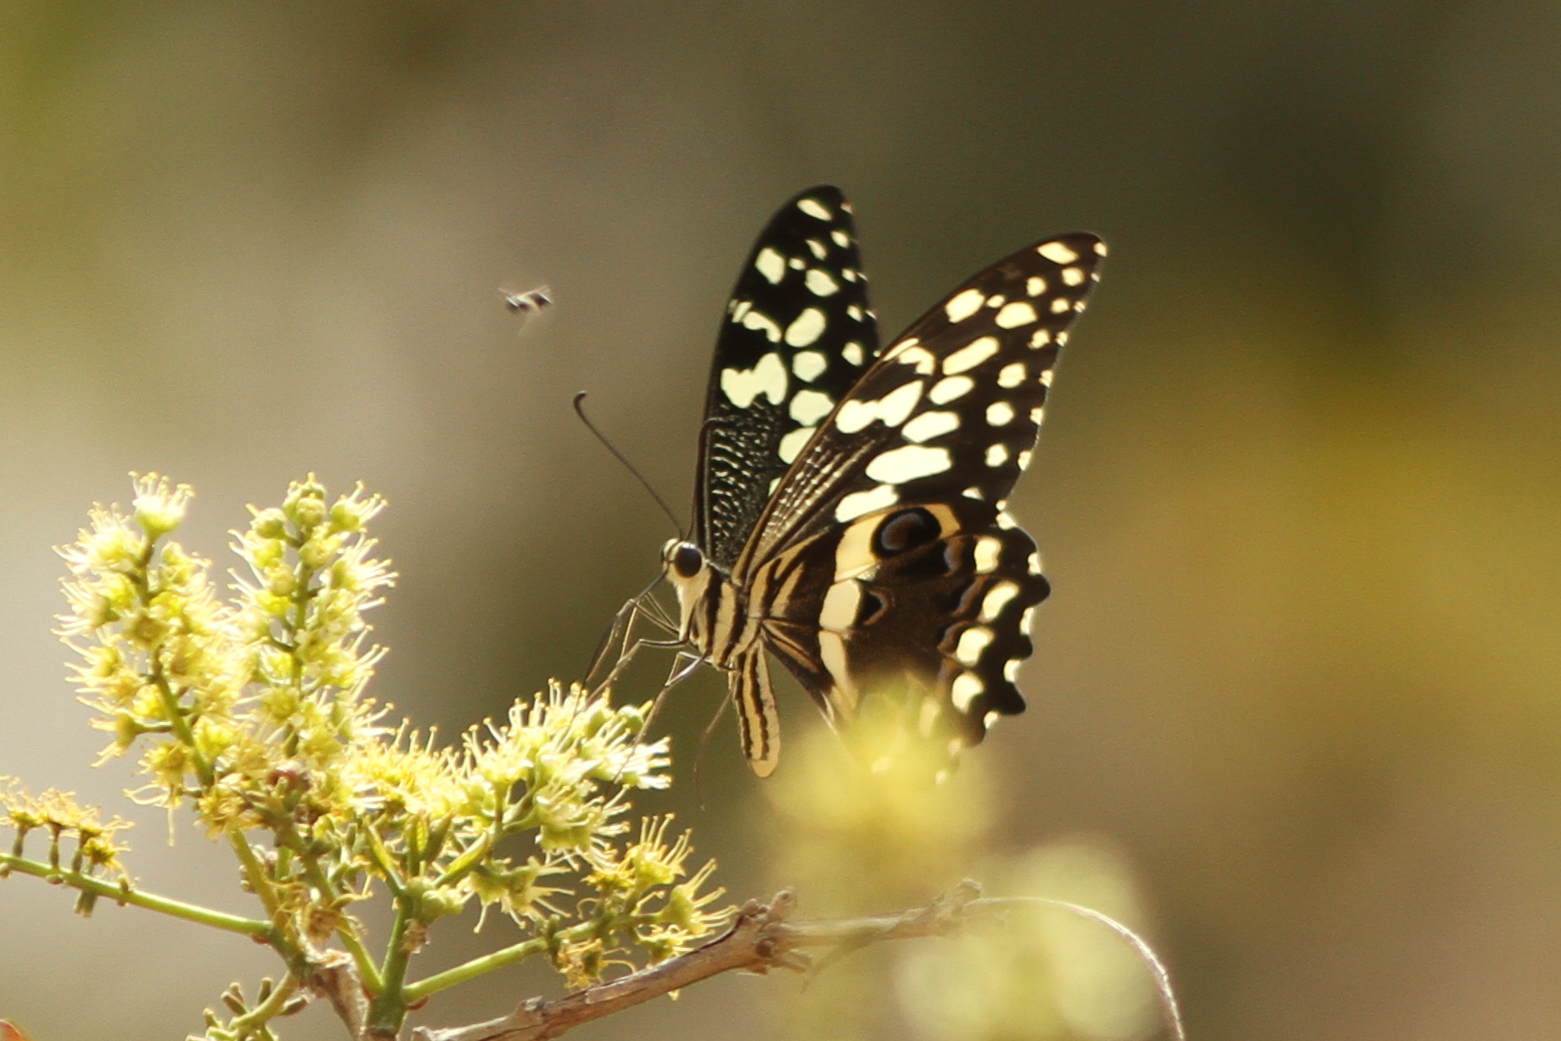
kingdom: Animalia
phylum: Arthropoda
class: Insecta
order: Lepidoptera
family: Papilionidae
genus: Papilio
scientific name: Papilio demodocus
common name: Christmas butterfly
